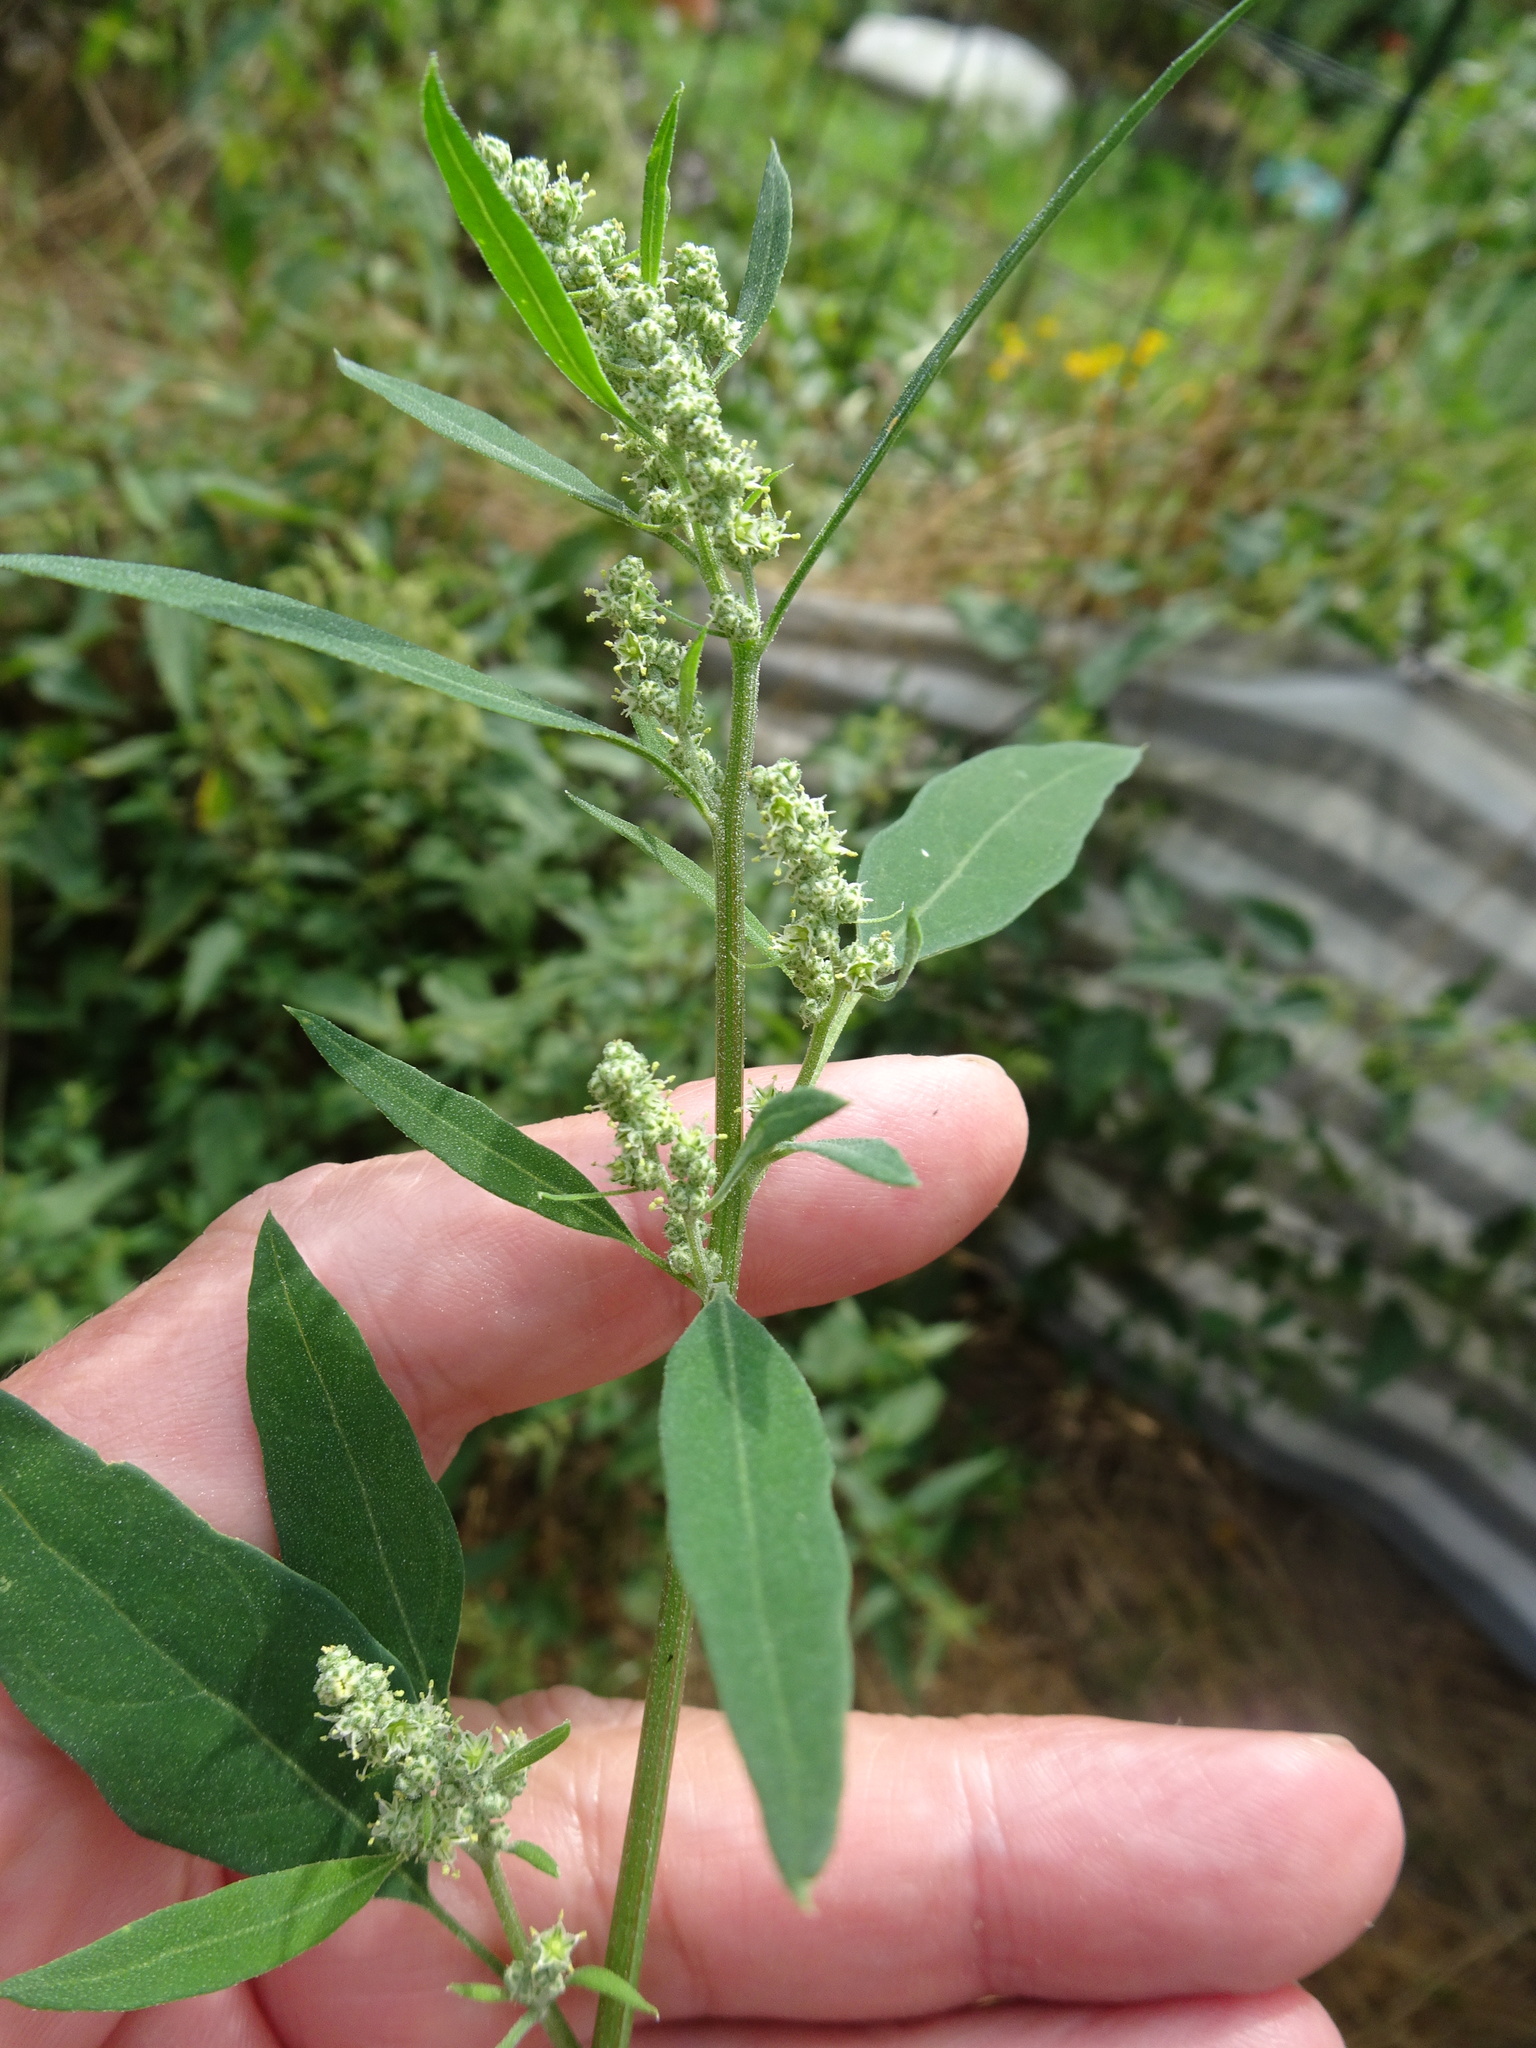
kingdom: Plantae
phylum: Tracheophyta
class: Magnoliopsida
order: Caryophyllales
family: Amaranthaceae
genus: Chenopodium
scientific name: Chenopodium album
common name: Fat-hen
